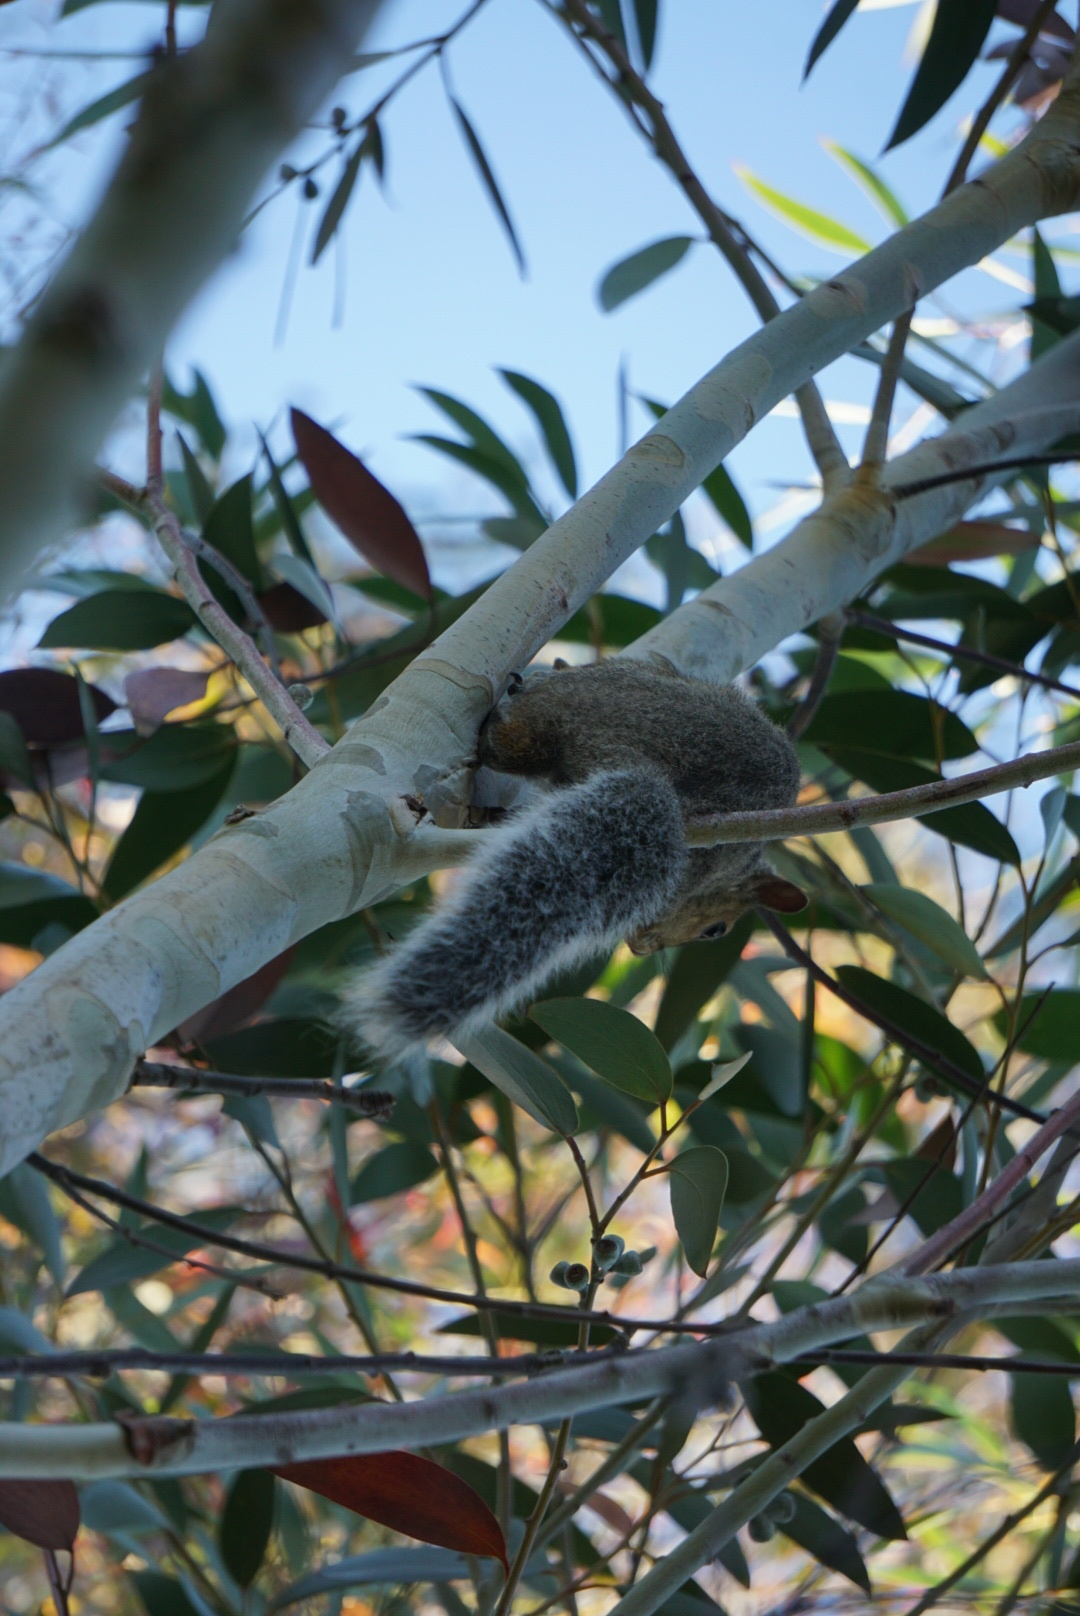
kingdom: Animalia
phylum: Chordata
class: Mammalia
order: Rodentia
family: Sciuridae
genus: Sciurus
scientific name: Sciurus carolinensis
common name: Eastern gray squirrel
